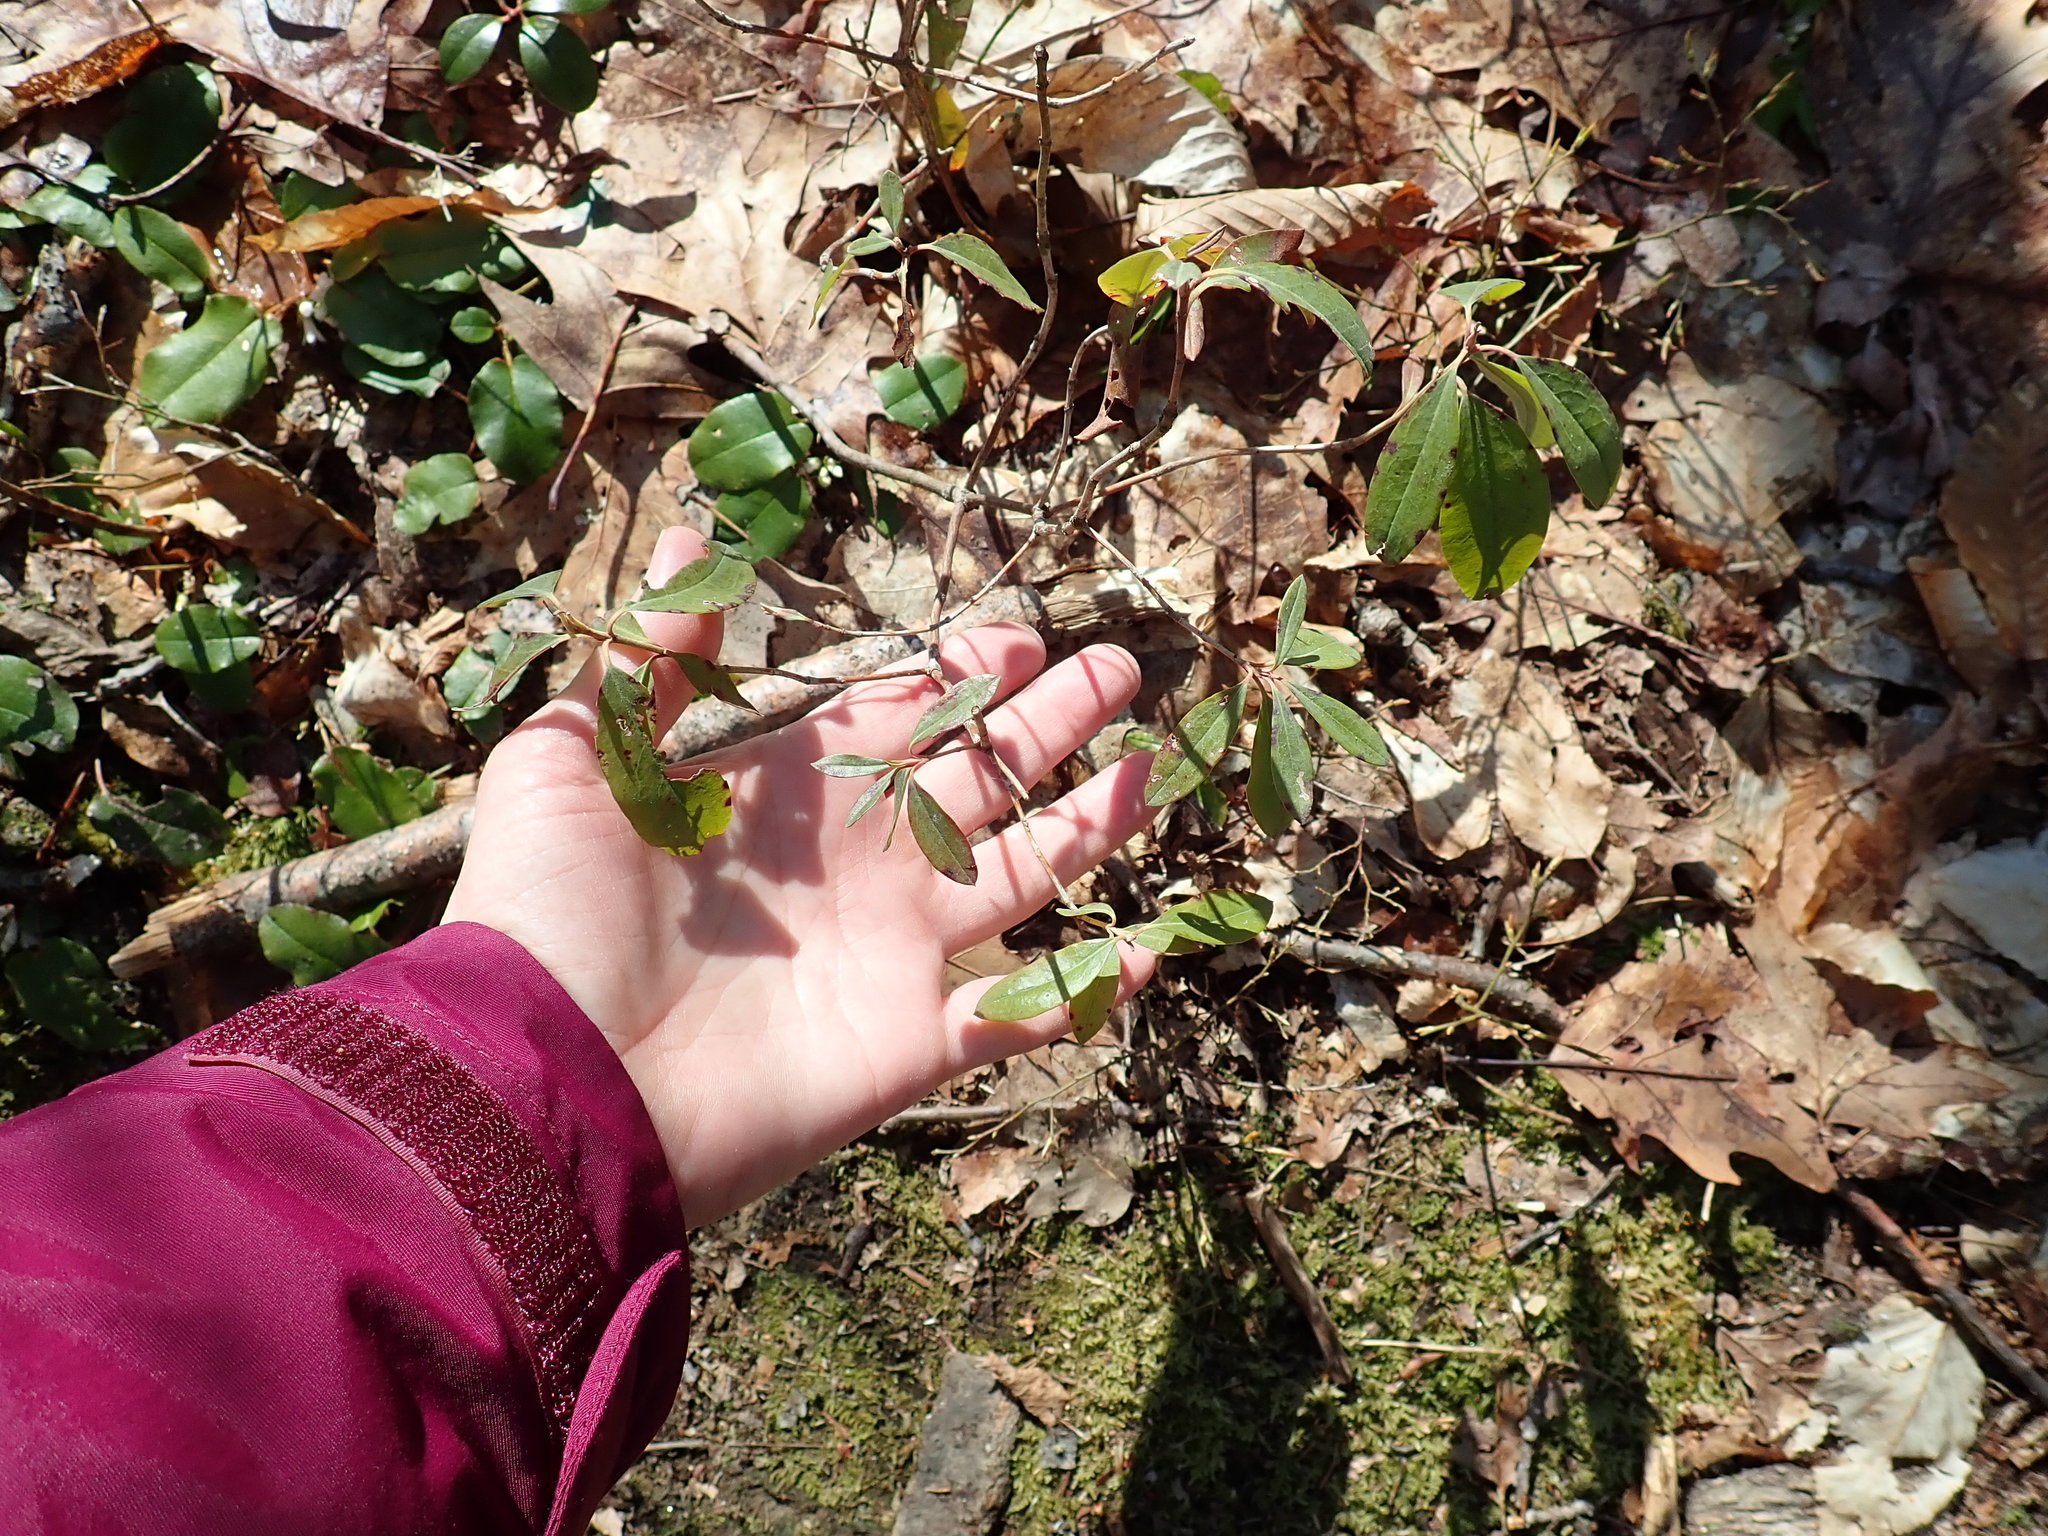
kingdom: Plantae
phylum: Tracheophyta
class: Magnoliopsida
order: Ericales
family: Ericaceae
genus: Kalmia
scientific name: Kalmia angustifolia
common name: Sheep-laurel
